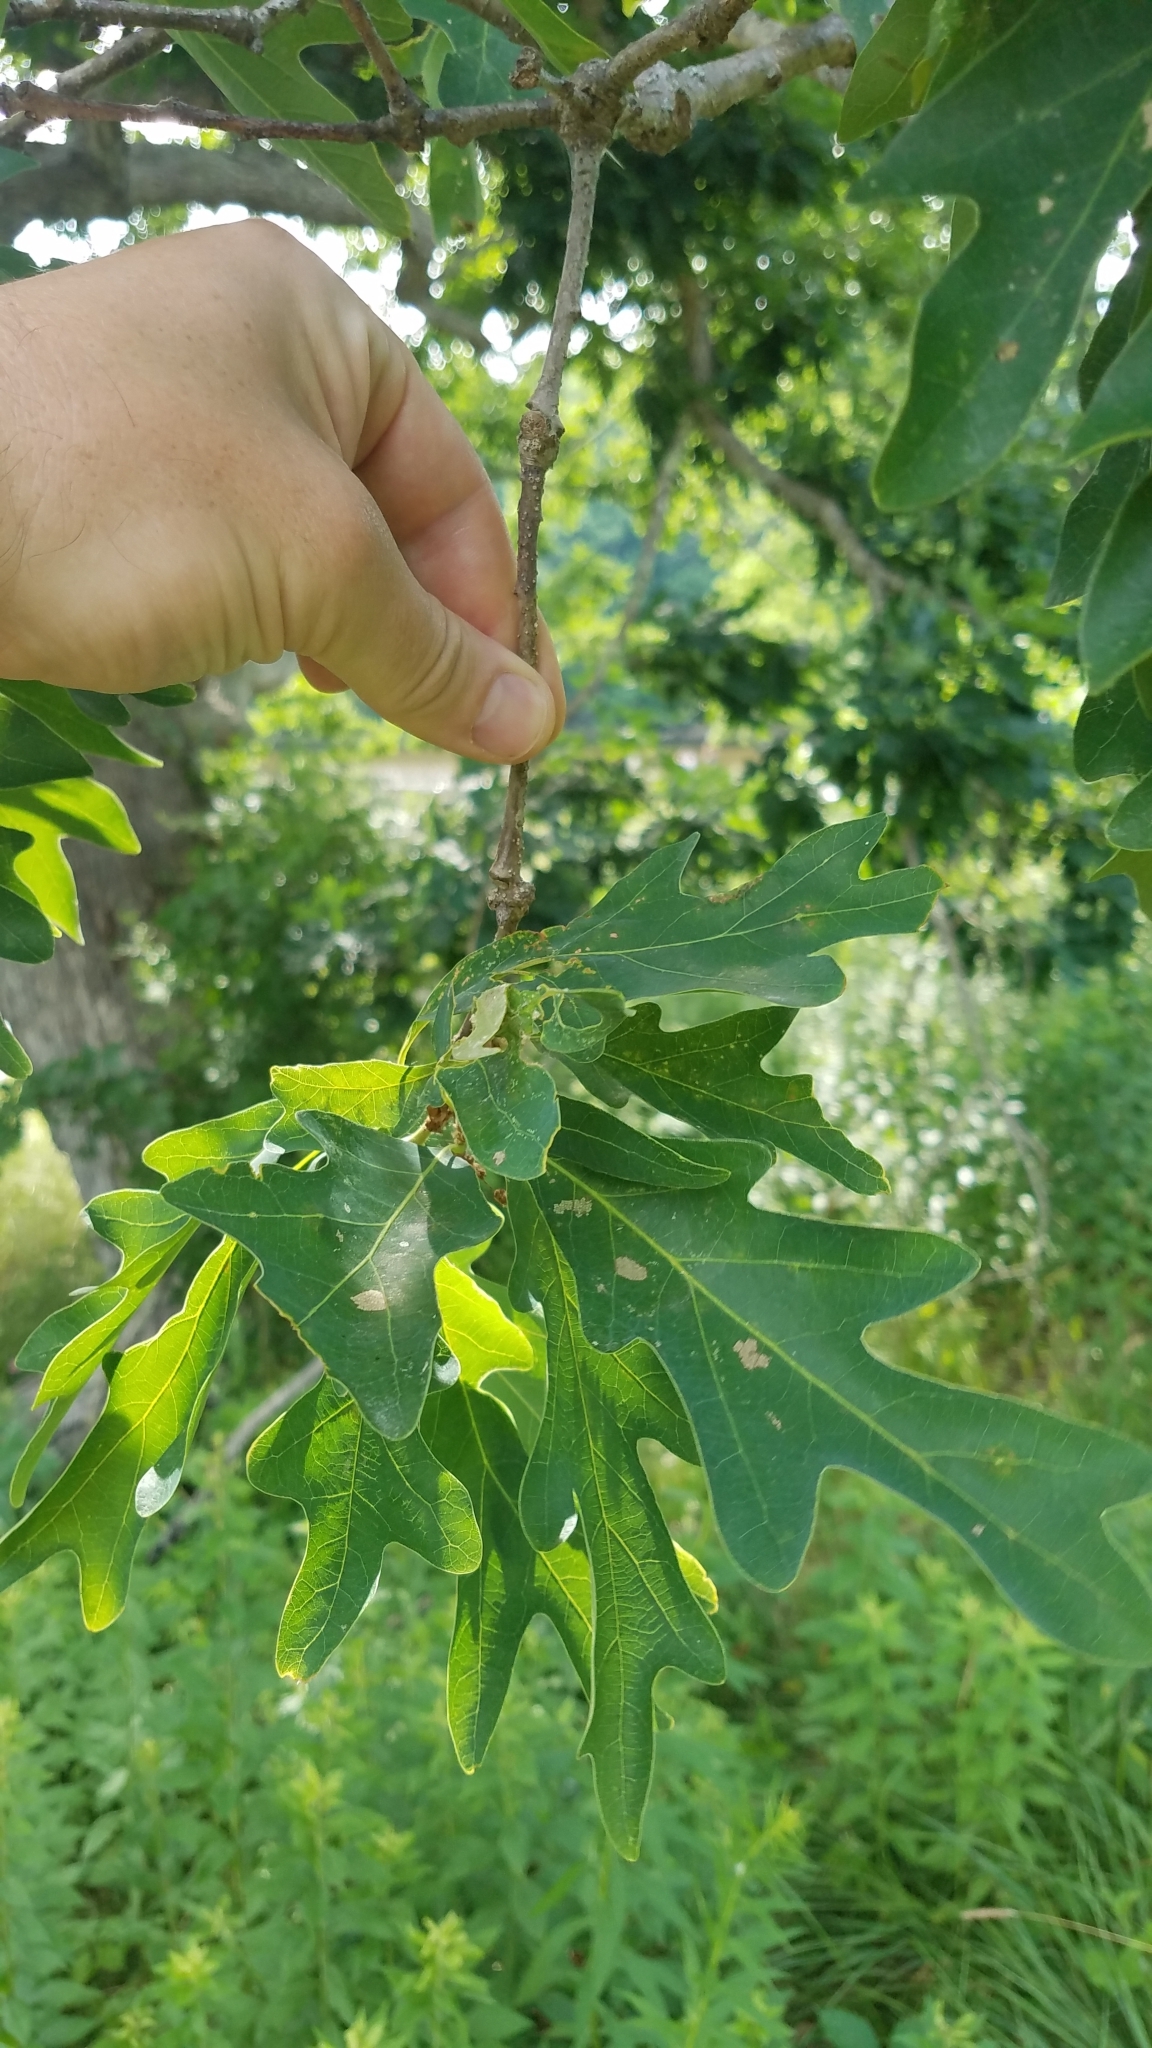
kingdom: Plantae
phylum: Tracheophyta
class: Magnoliopsida
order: Fagales
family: Fagaceae
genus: Quercus
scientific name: Quercus alba
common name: White oak
